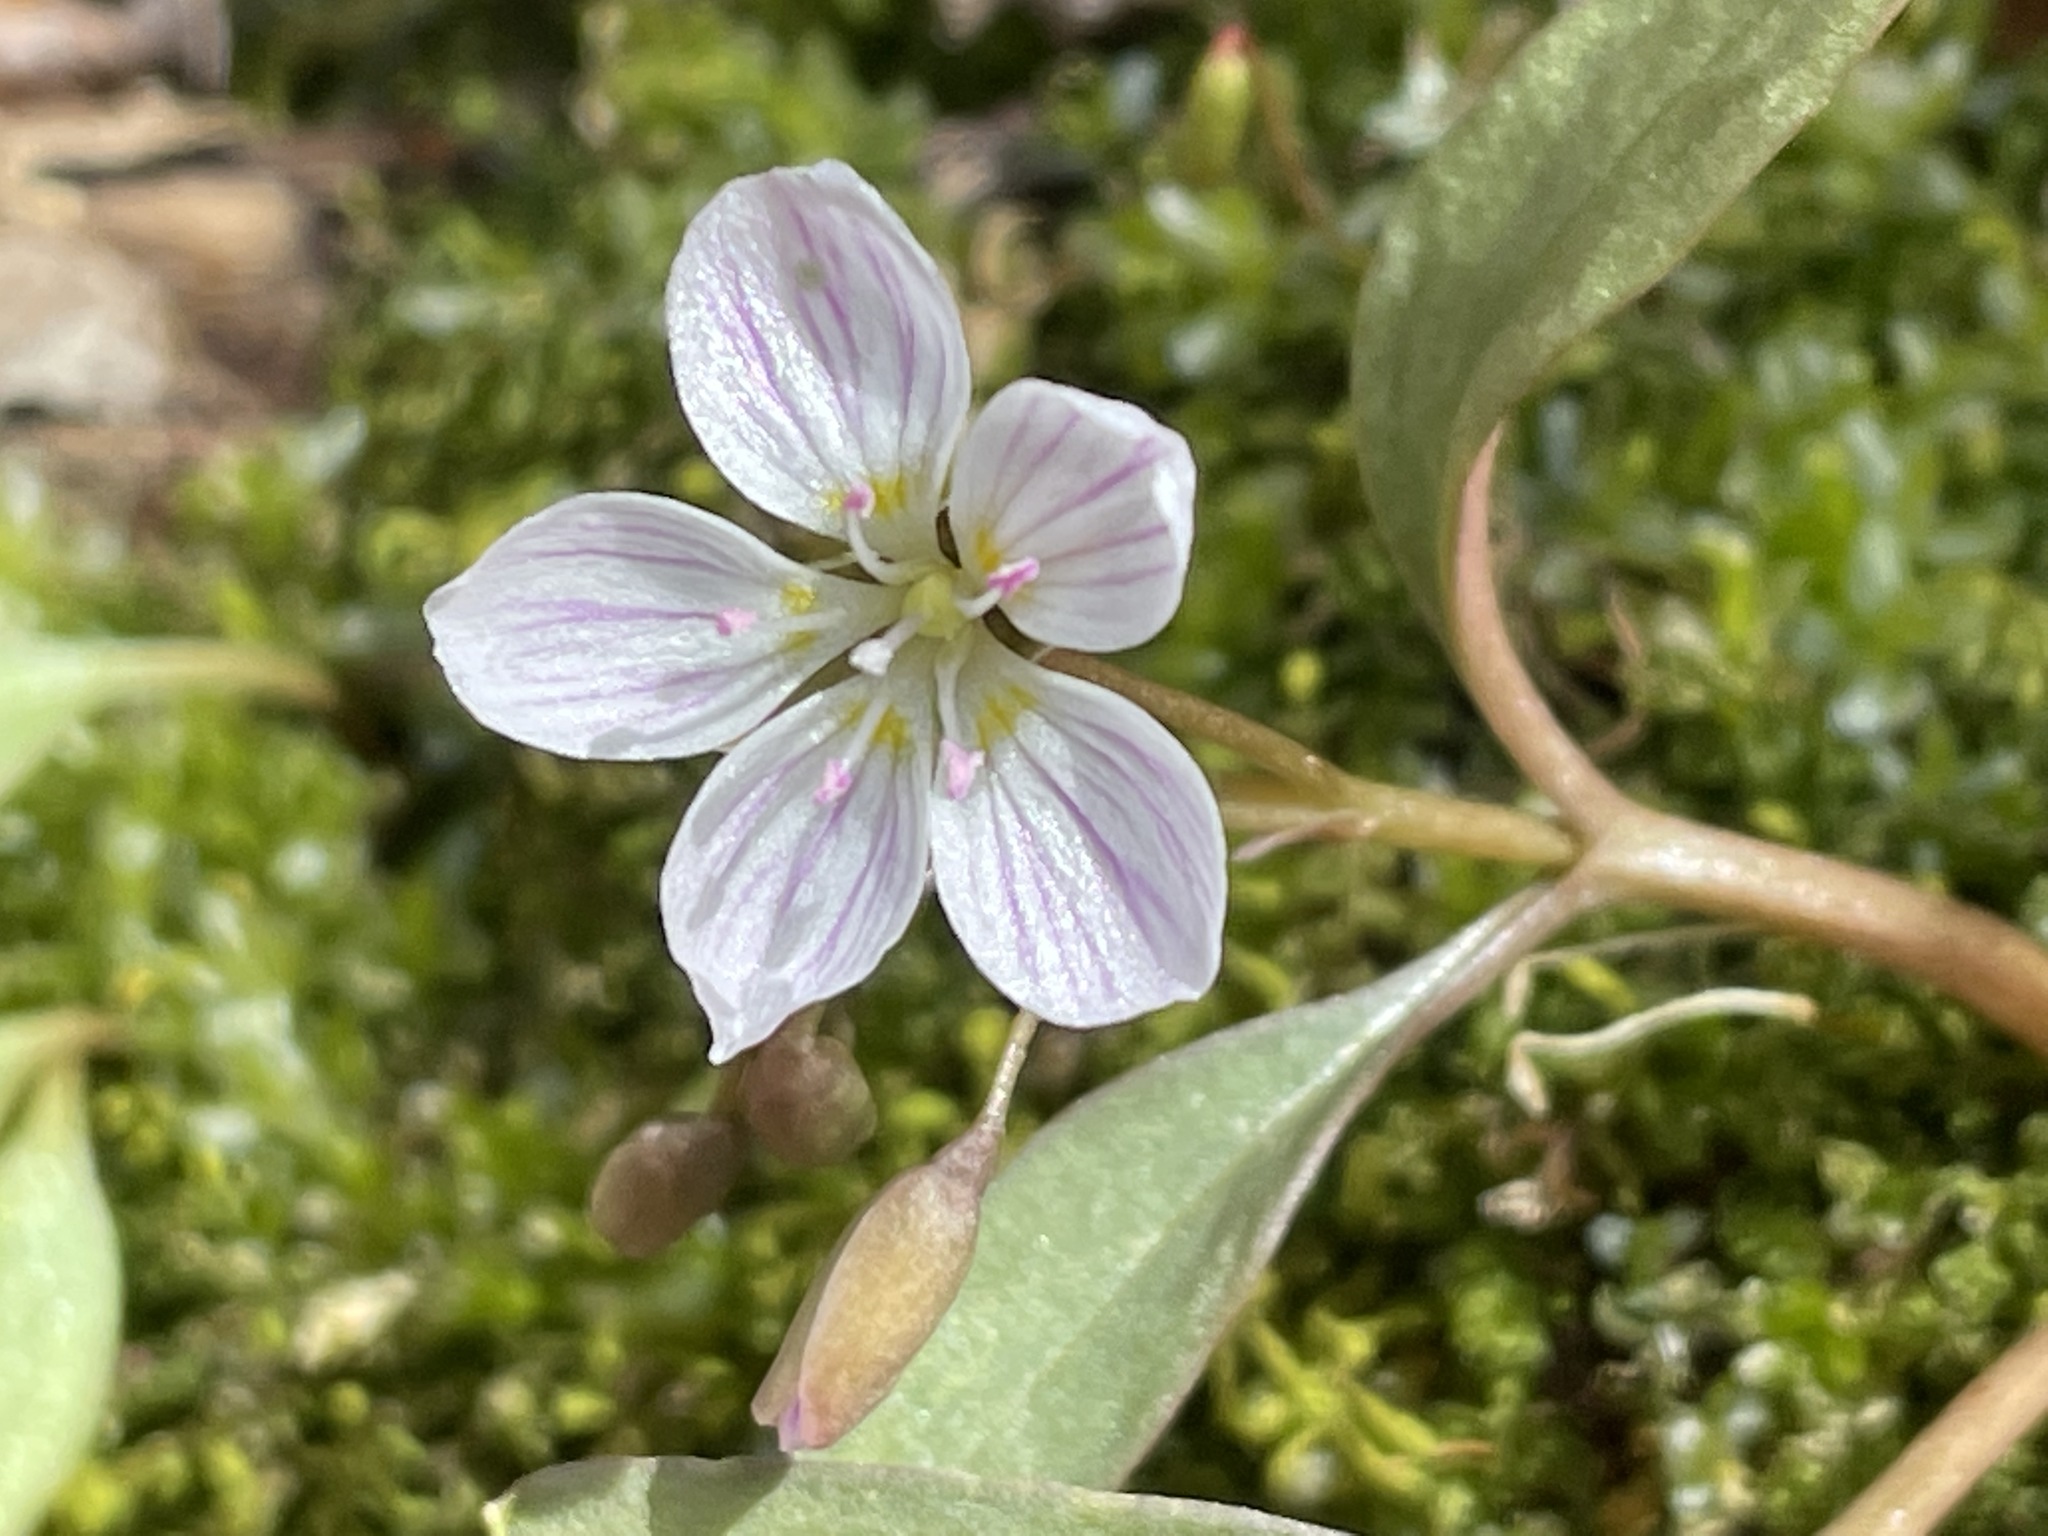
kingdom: Plantae
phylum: Tracheophyta
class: Magnoliopsida
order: Caryophyllales
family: Montiaceae
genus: Claytonia
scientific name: Claytonia caroliniana
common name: Carolina spring beauty
